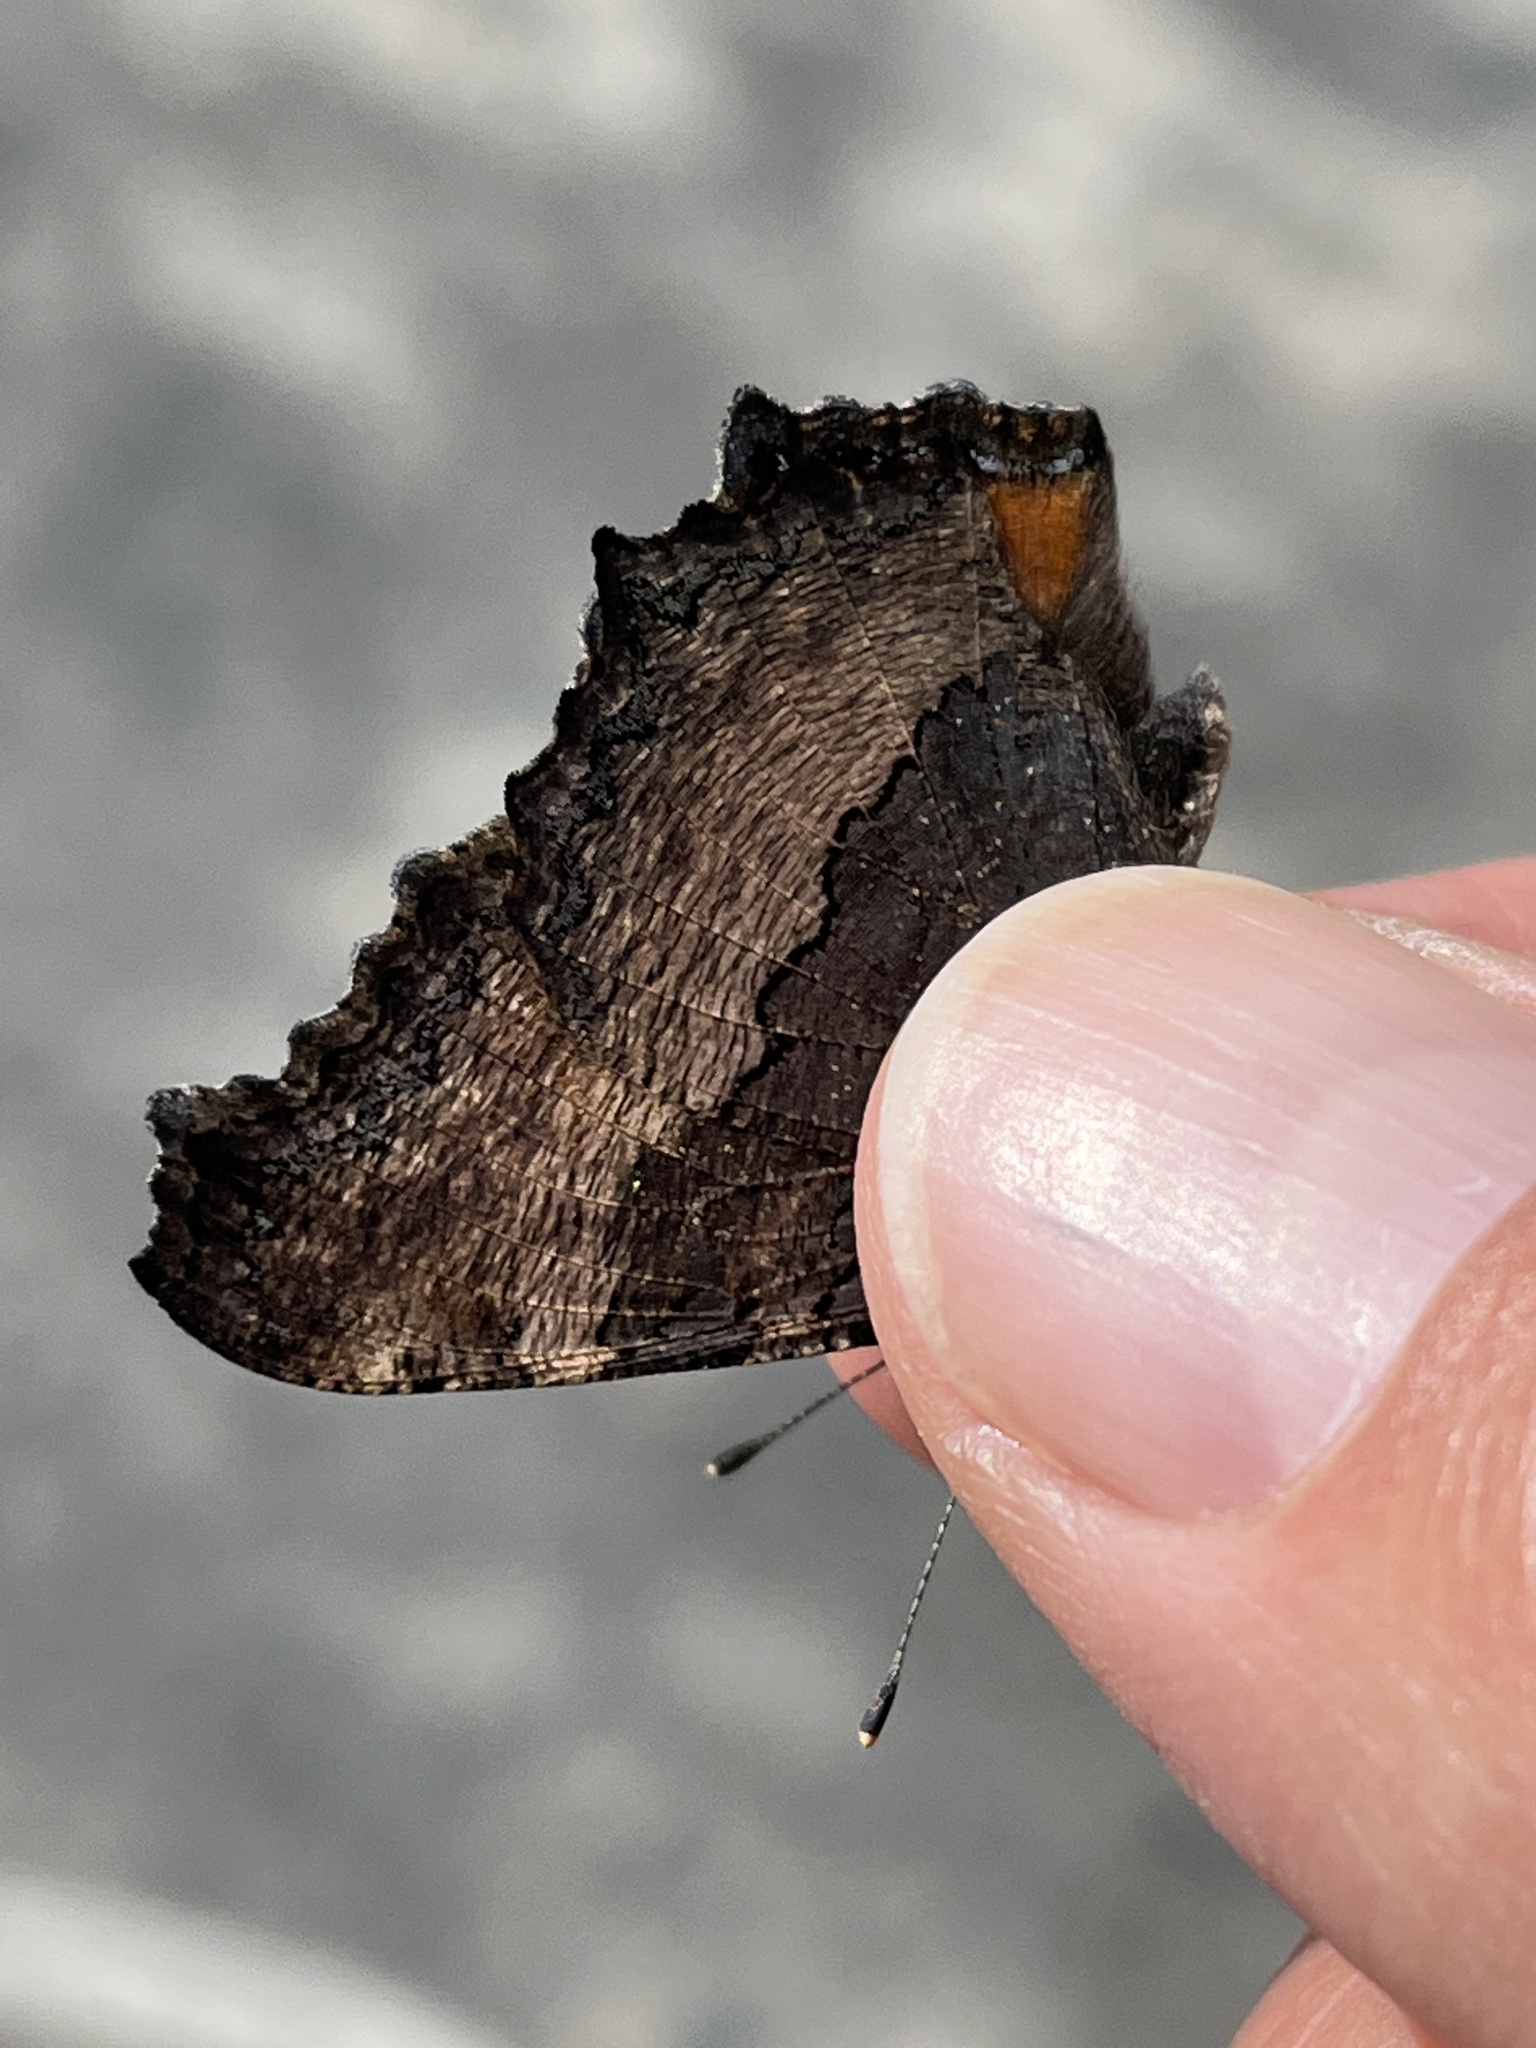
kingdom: Animalia
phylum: Arthropoda
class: Insecta
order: Lepidoptera
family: Nymphalidae
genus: Aglais
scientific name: Aglais milberti
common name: Milbert's tortoiseshell
